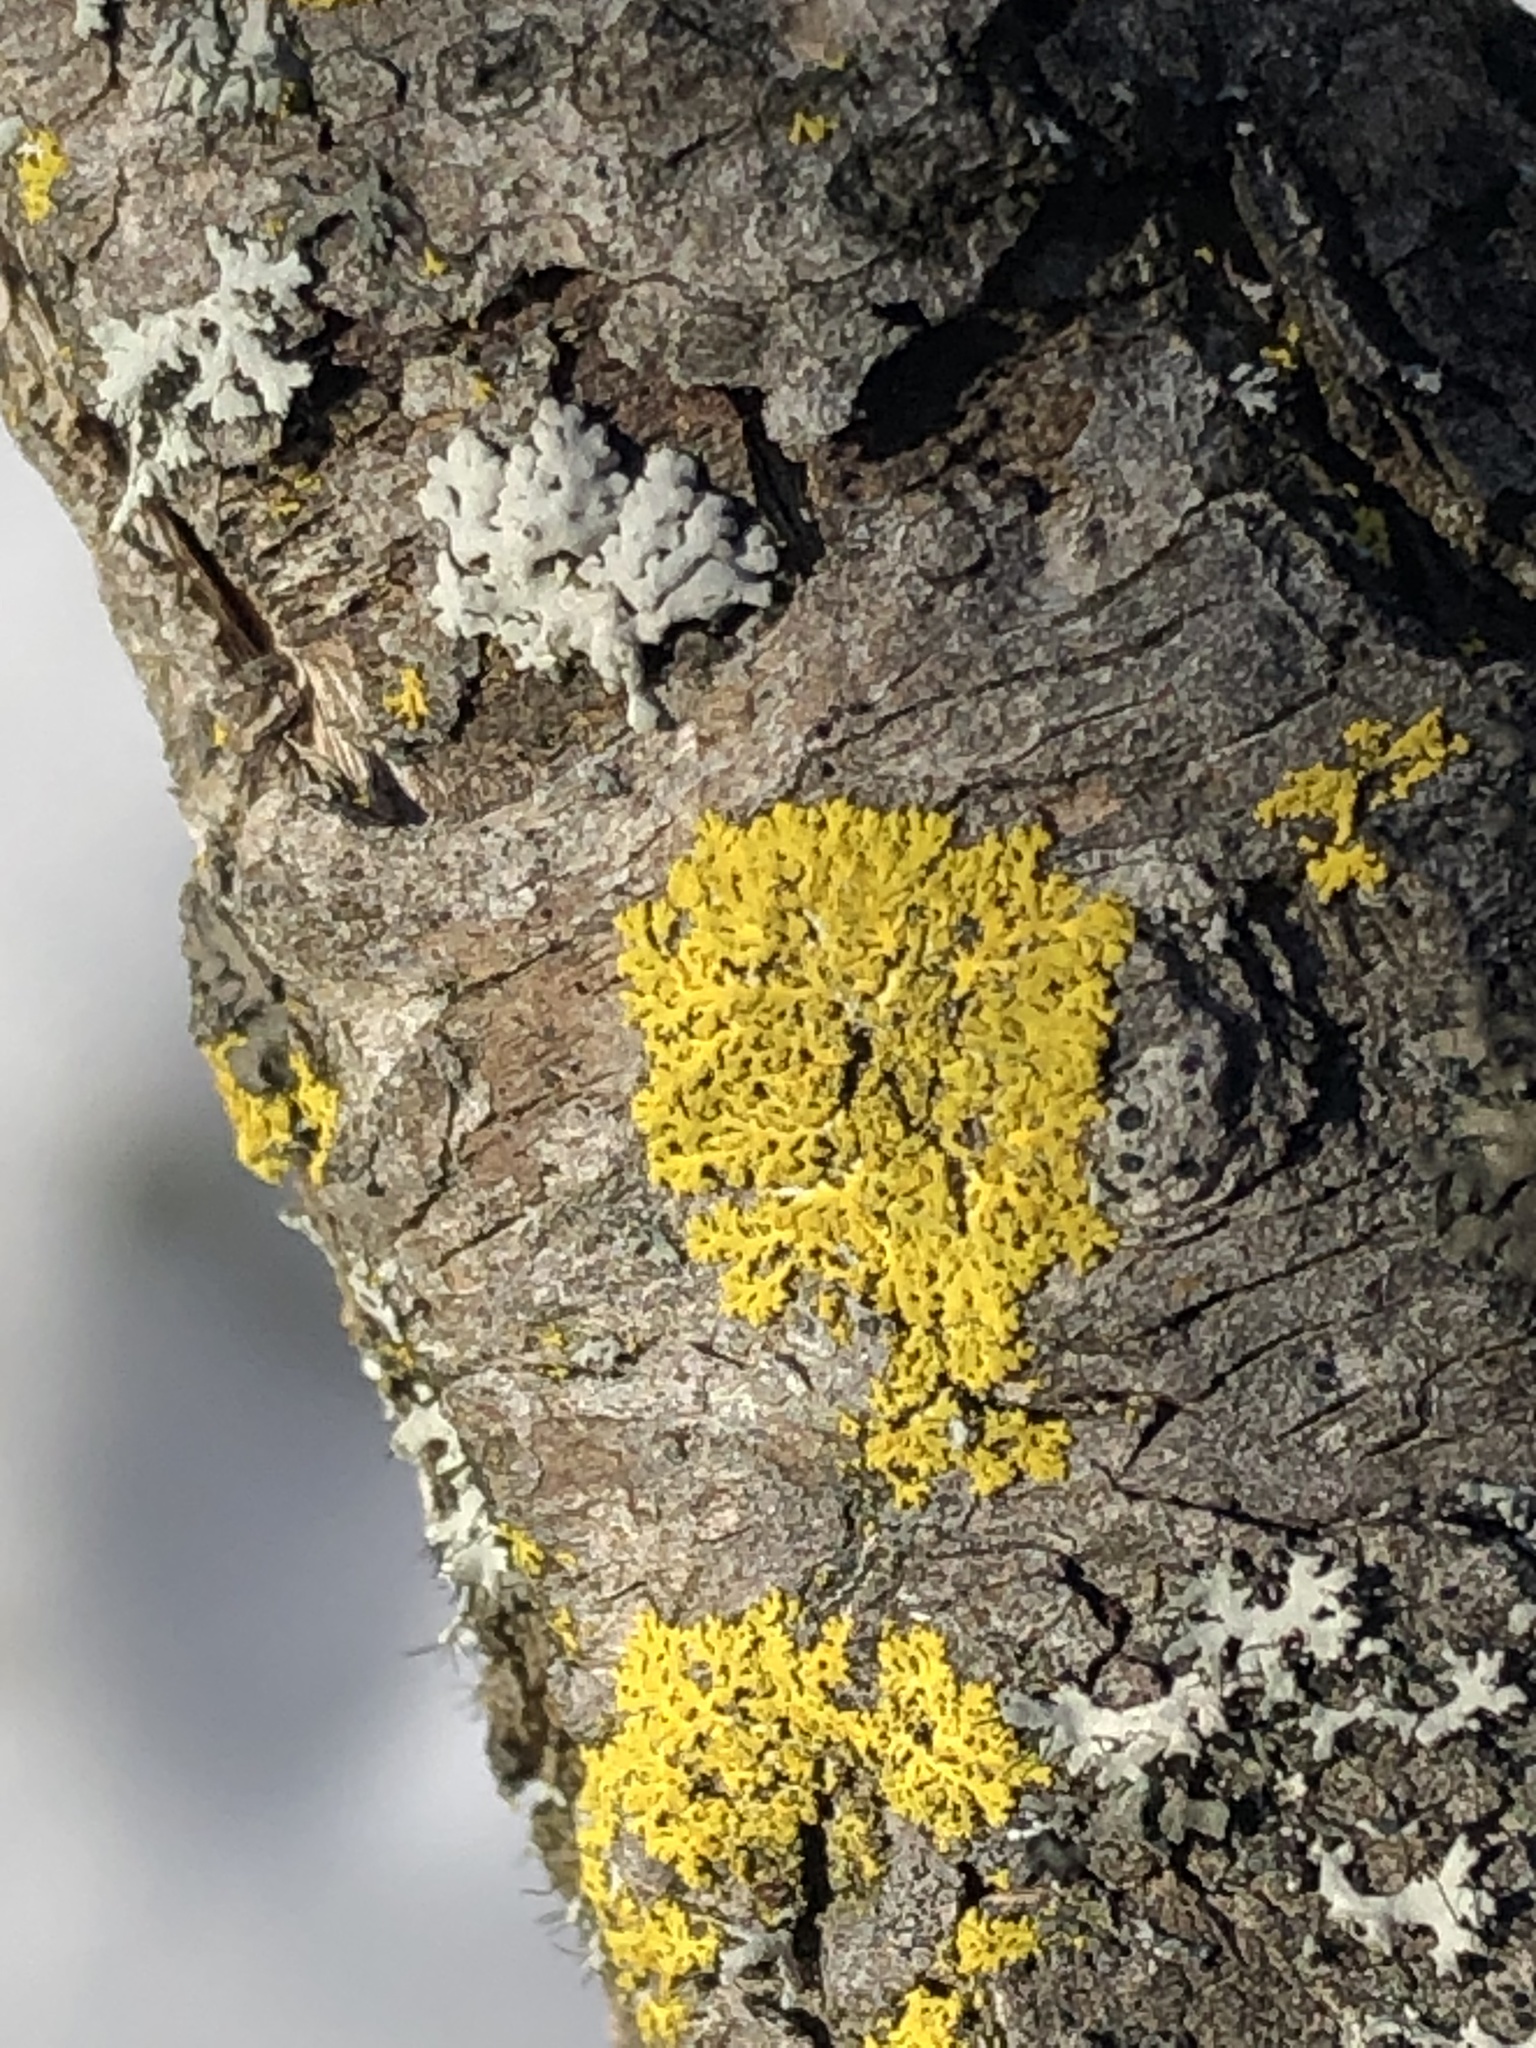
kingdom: Fungi
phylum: Ascomycota
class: Candelariomycetes
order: Candelariales
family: Candelariaceae
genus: Candelaria
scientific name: Candelaria concolor
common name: Candleflame lichen
